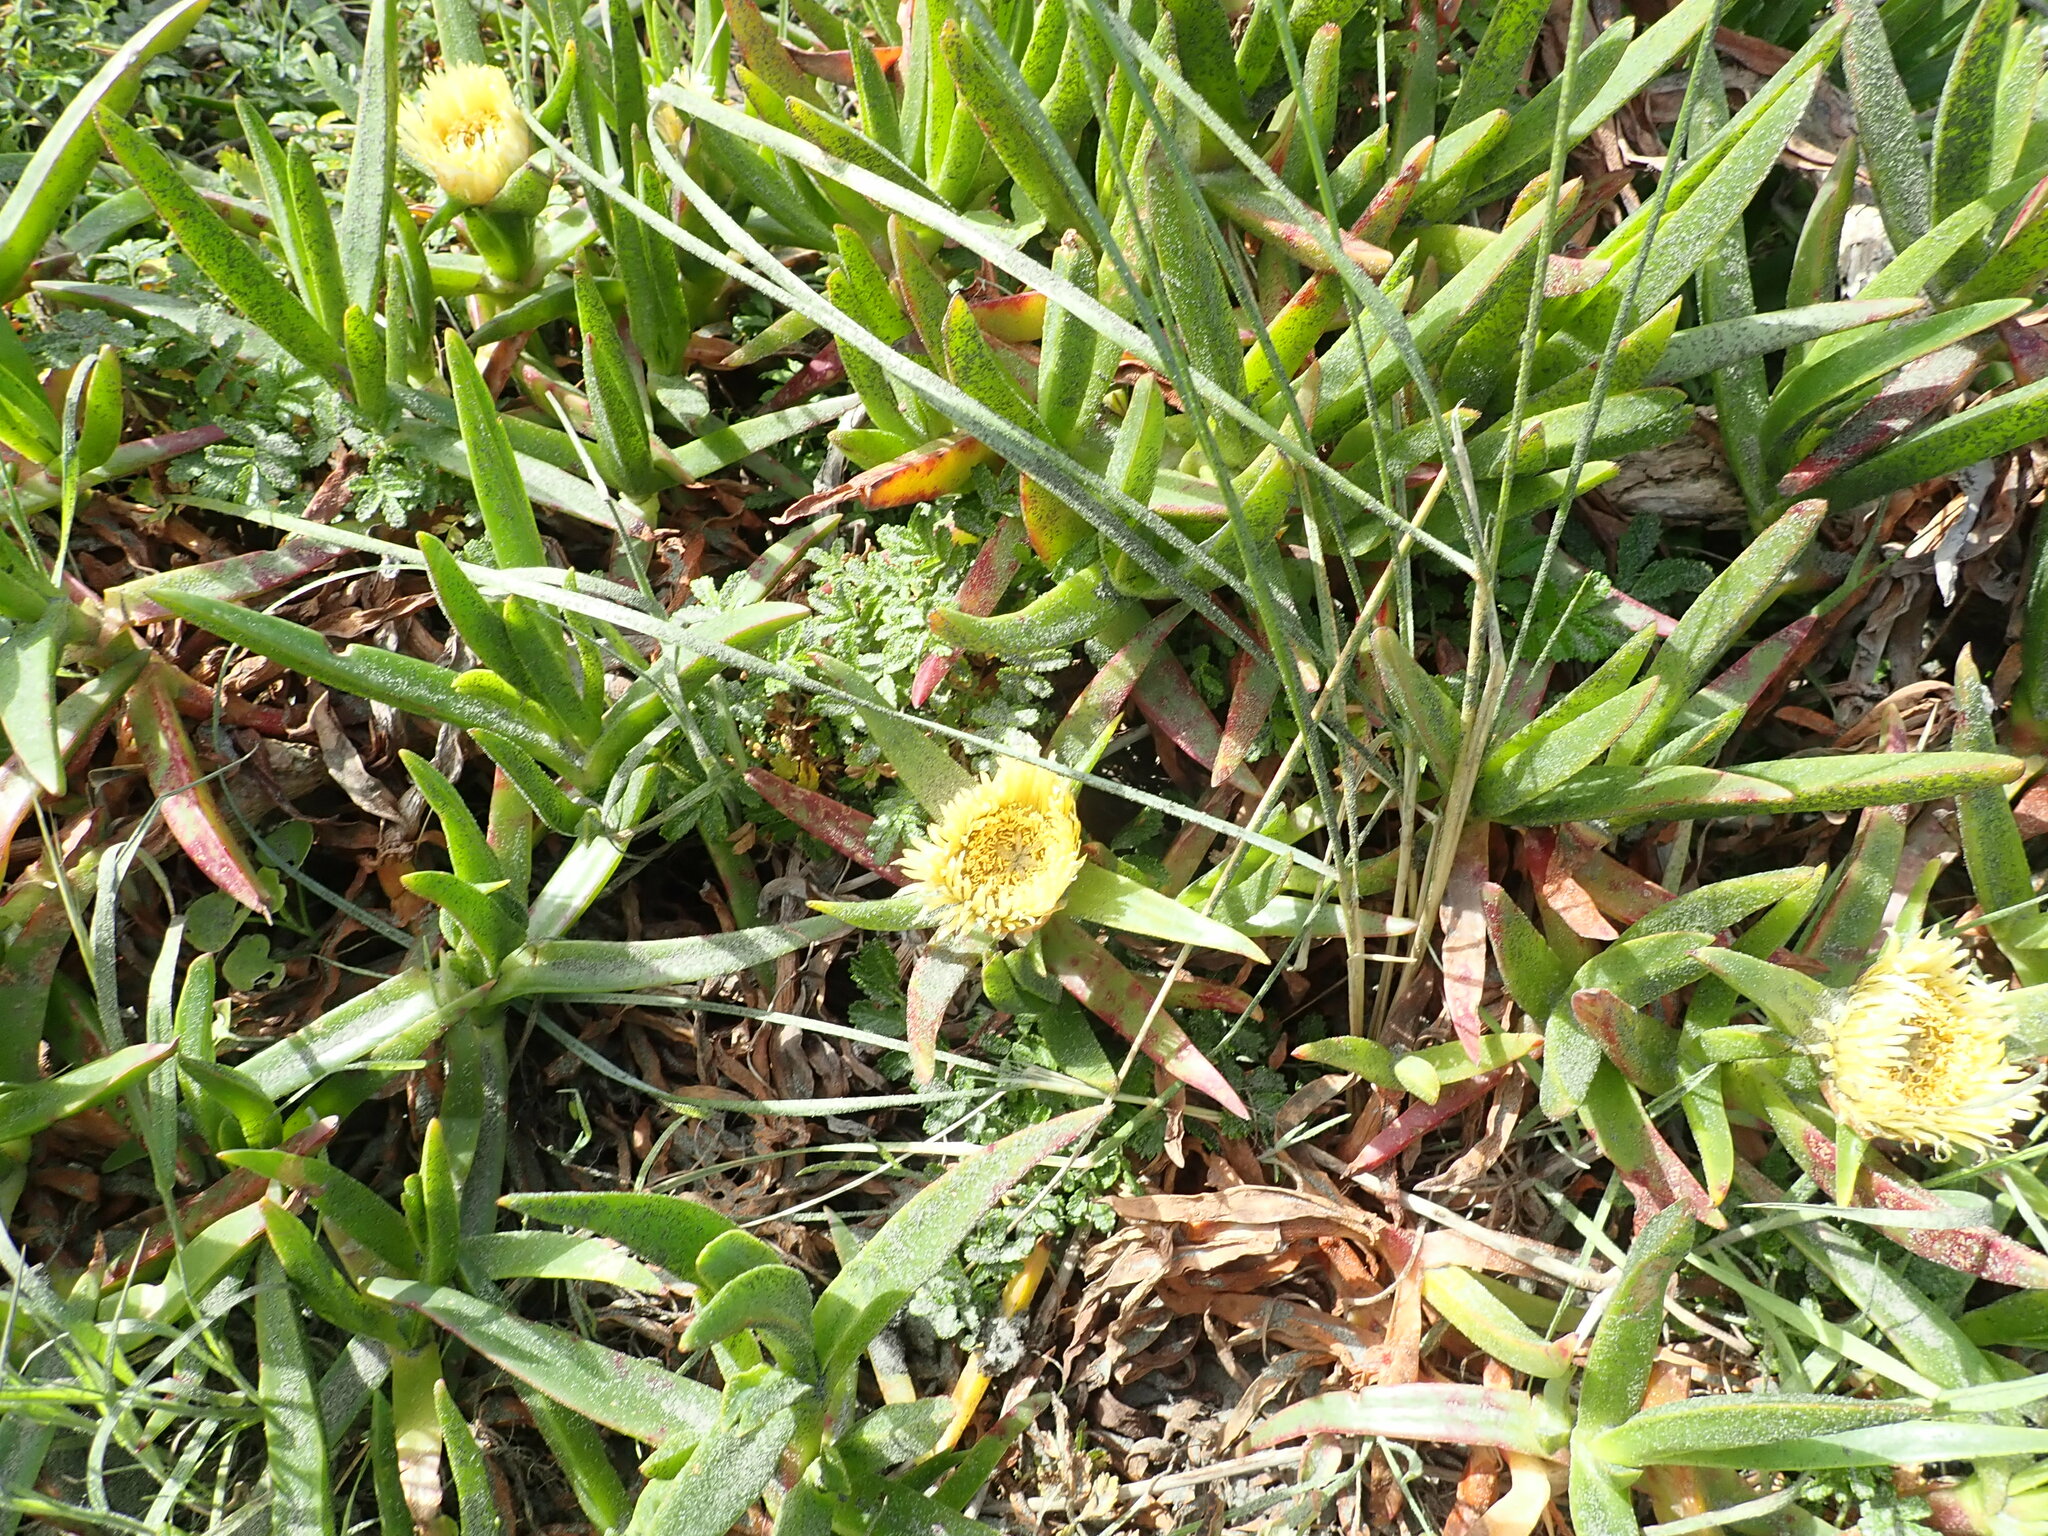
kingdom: Plantae
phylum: Tracheophyta
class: Magnoliopsida
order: Caryophyllales
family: Aizoaceae
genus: Carpobrotus
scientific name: Carpobrotus edulis
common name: Hottentot-fig
